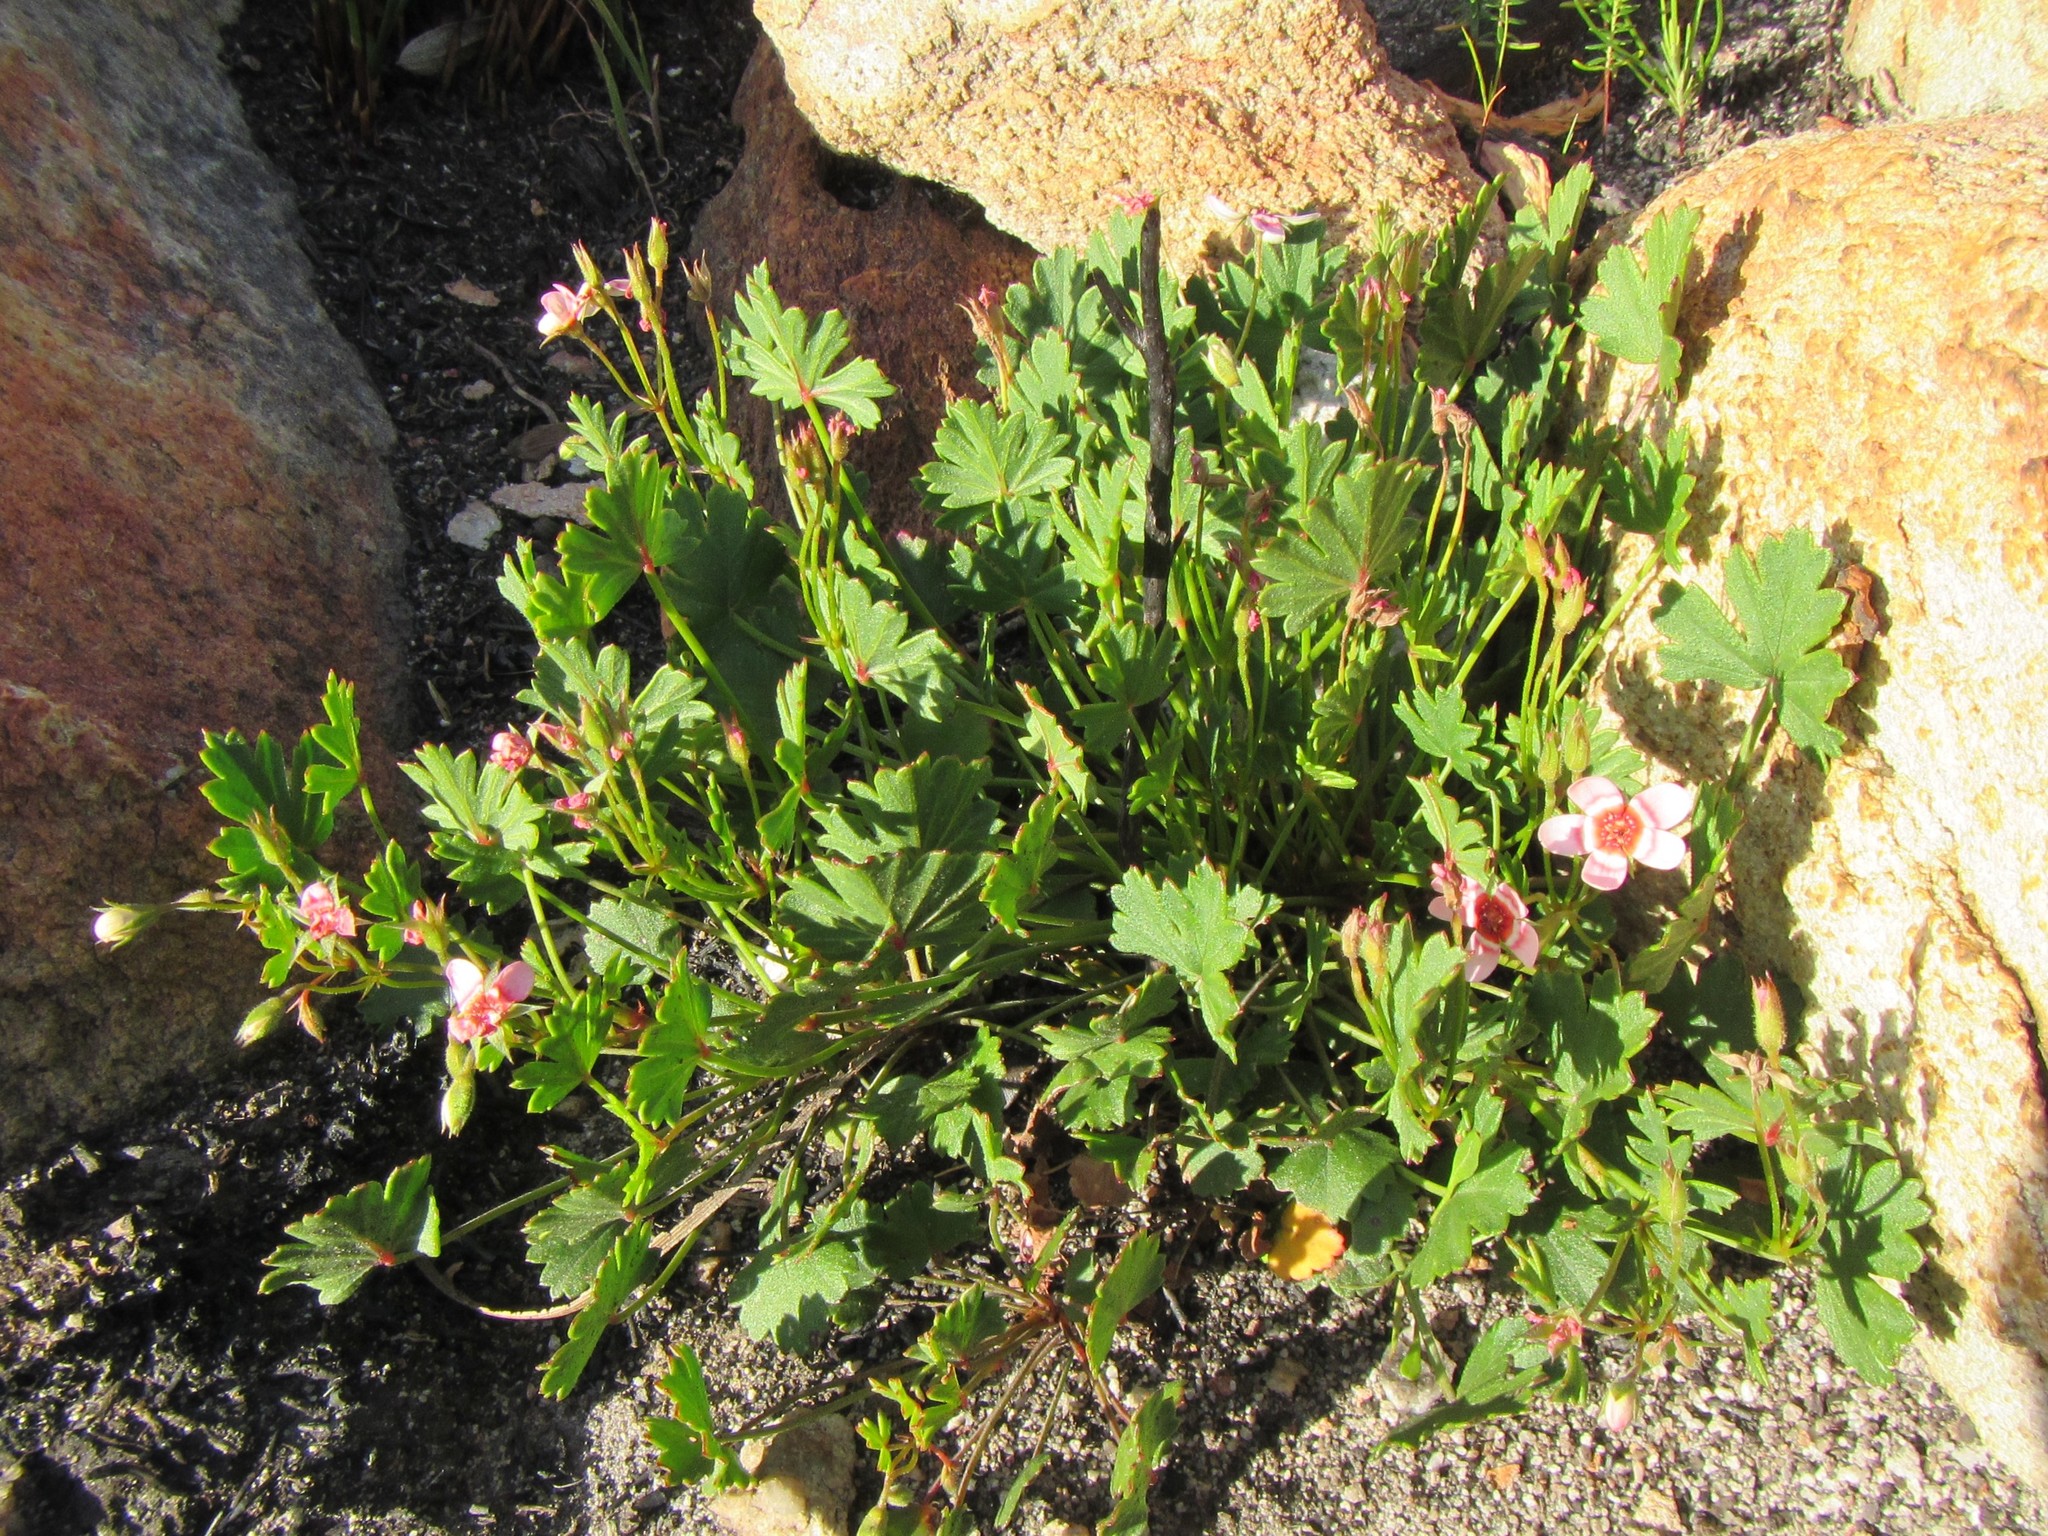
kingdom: Plantae
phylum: Tracheophyta
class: Magnoliopsida
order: Geraniales
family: Geraniaceae
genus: Pelargonium
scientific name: Pelargonium incarnatum
